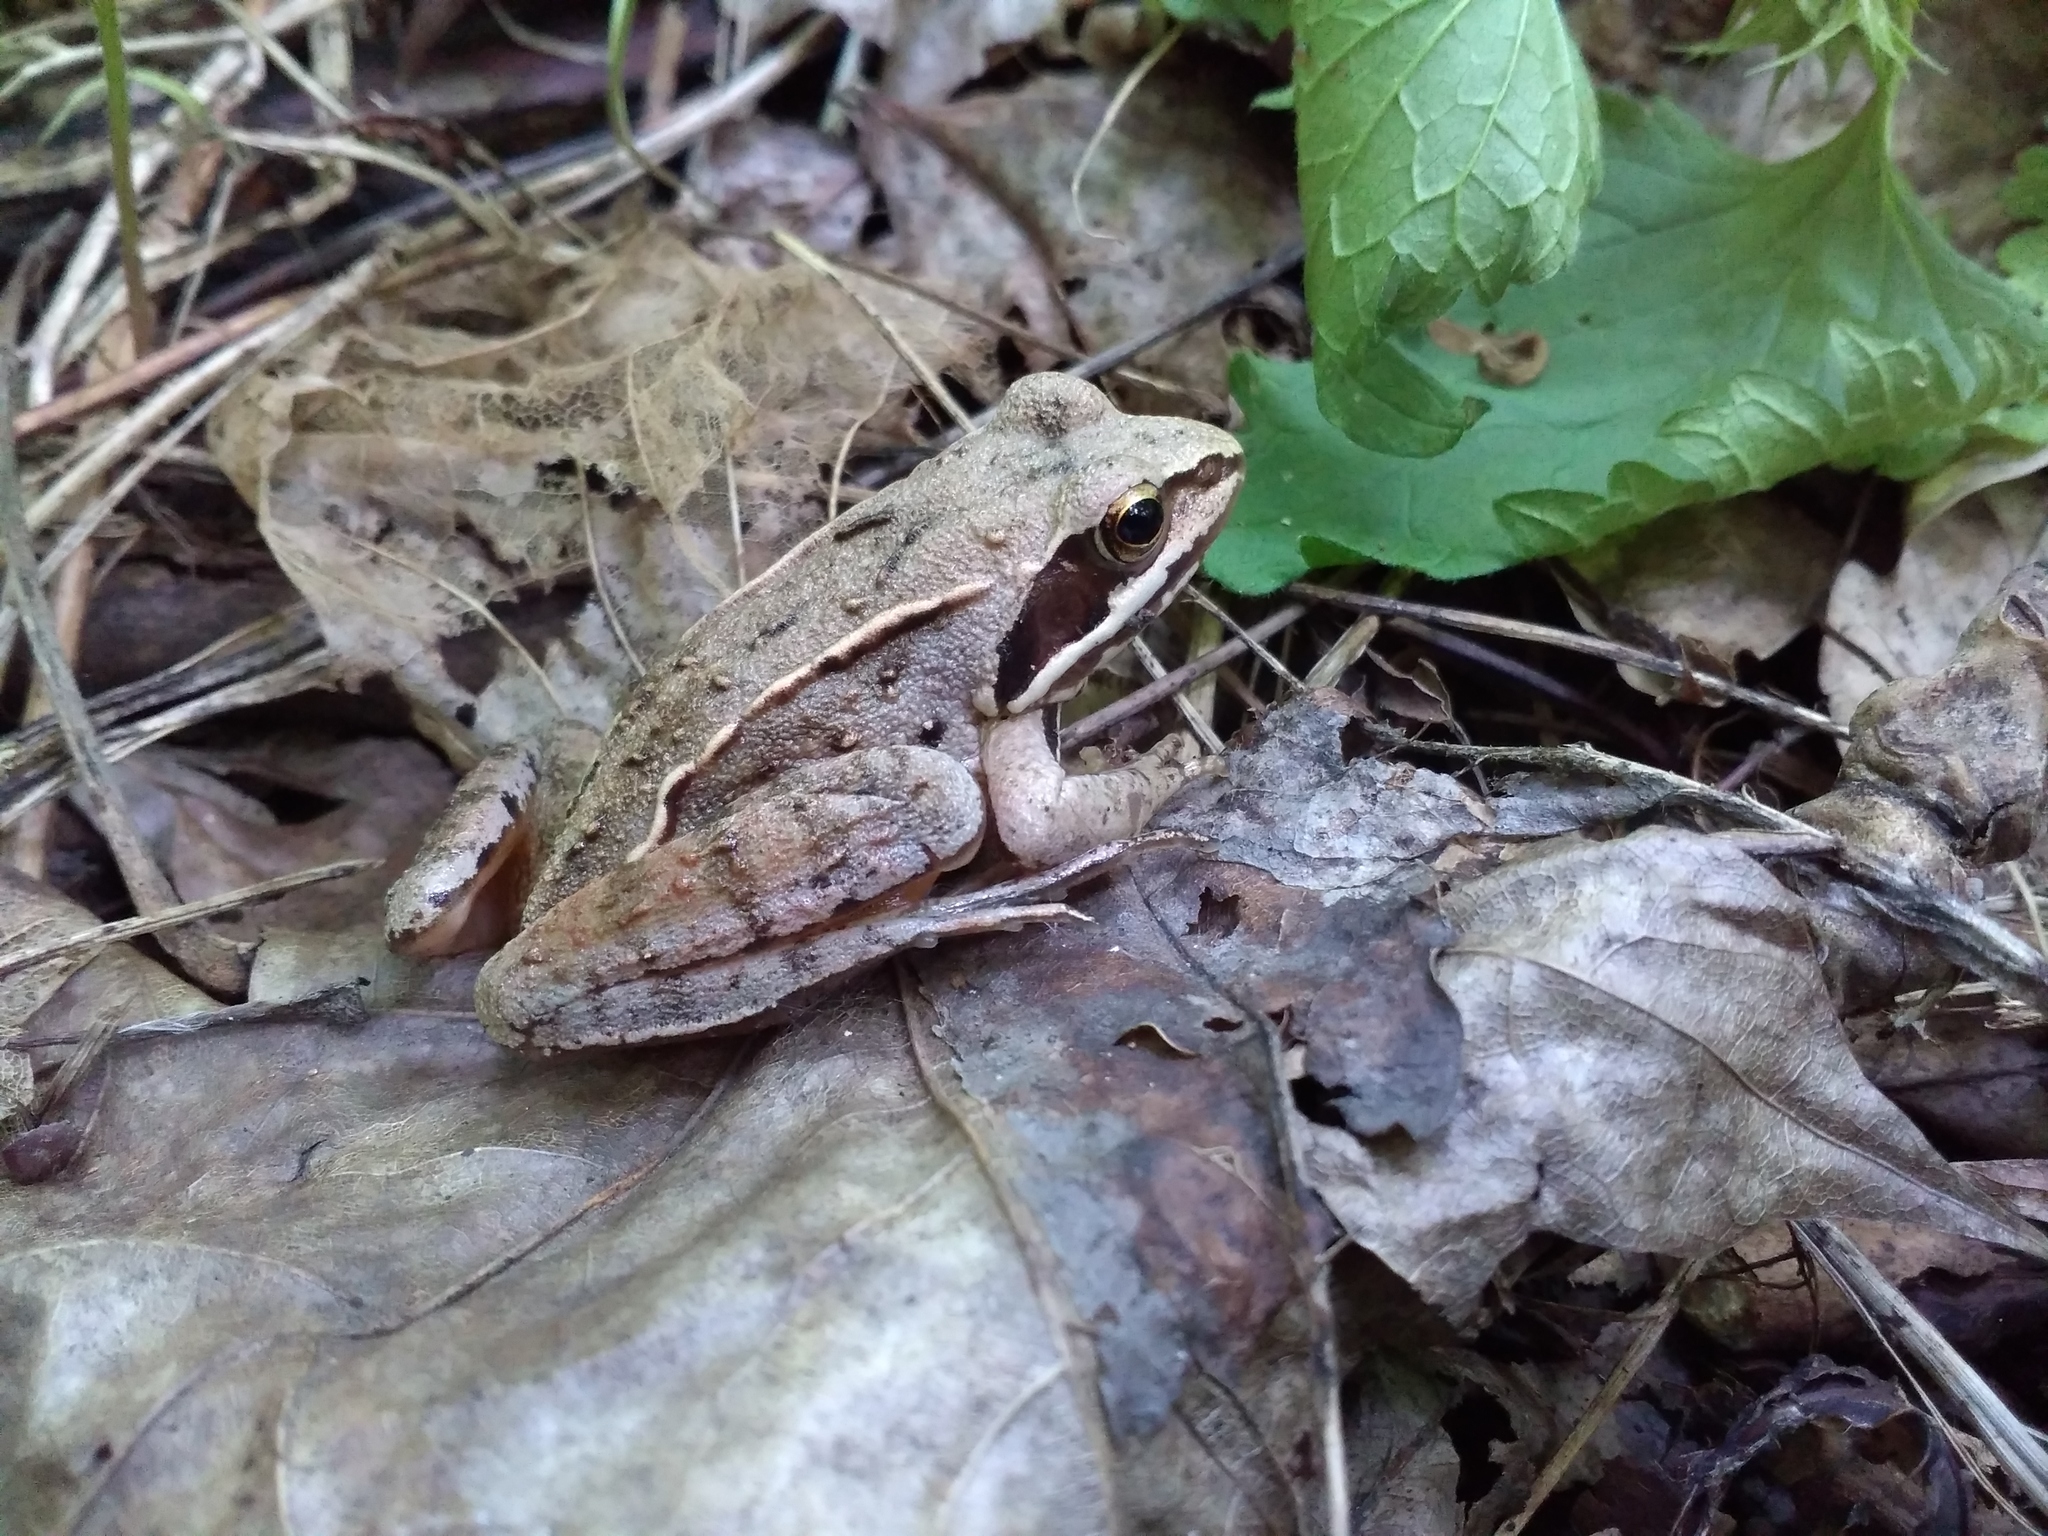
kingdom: Animalia
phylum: Chordata
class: Amphibia
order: Anura
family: Ranidae
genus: Rana
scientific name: Rana arvalis
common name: Moor frog
